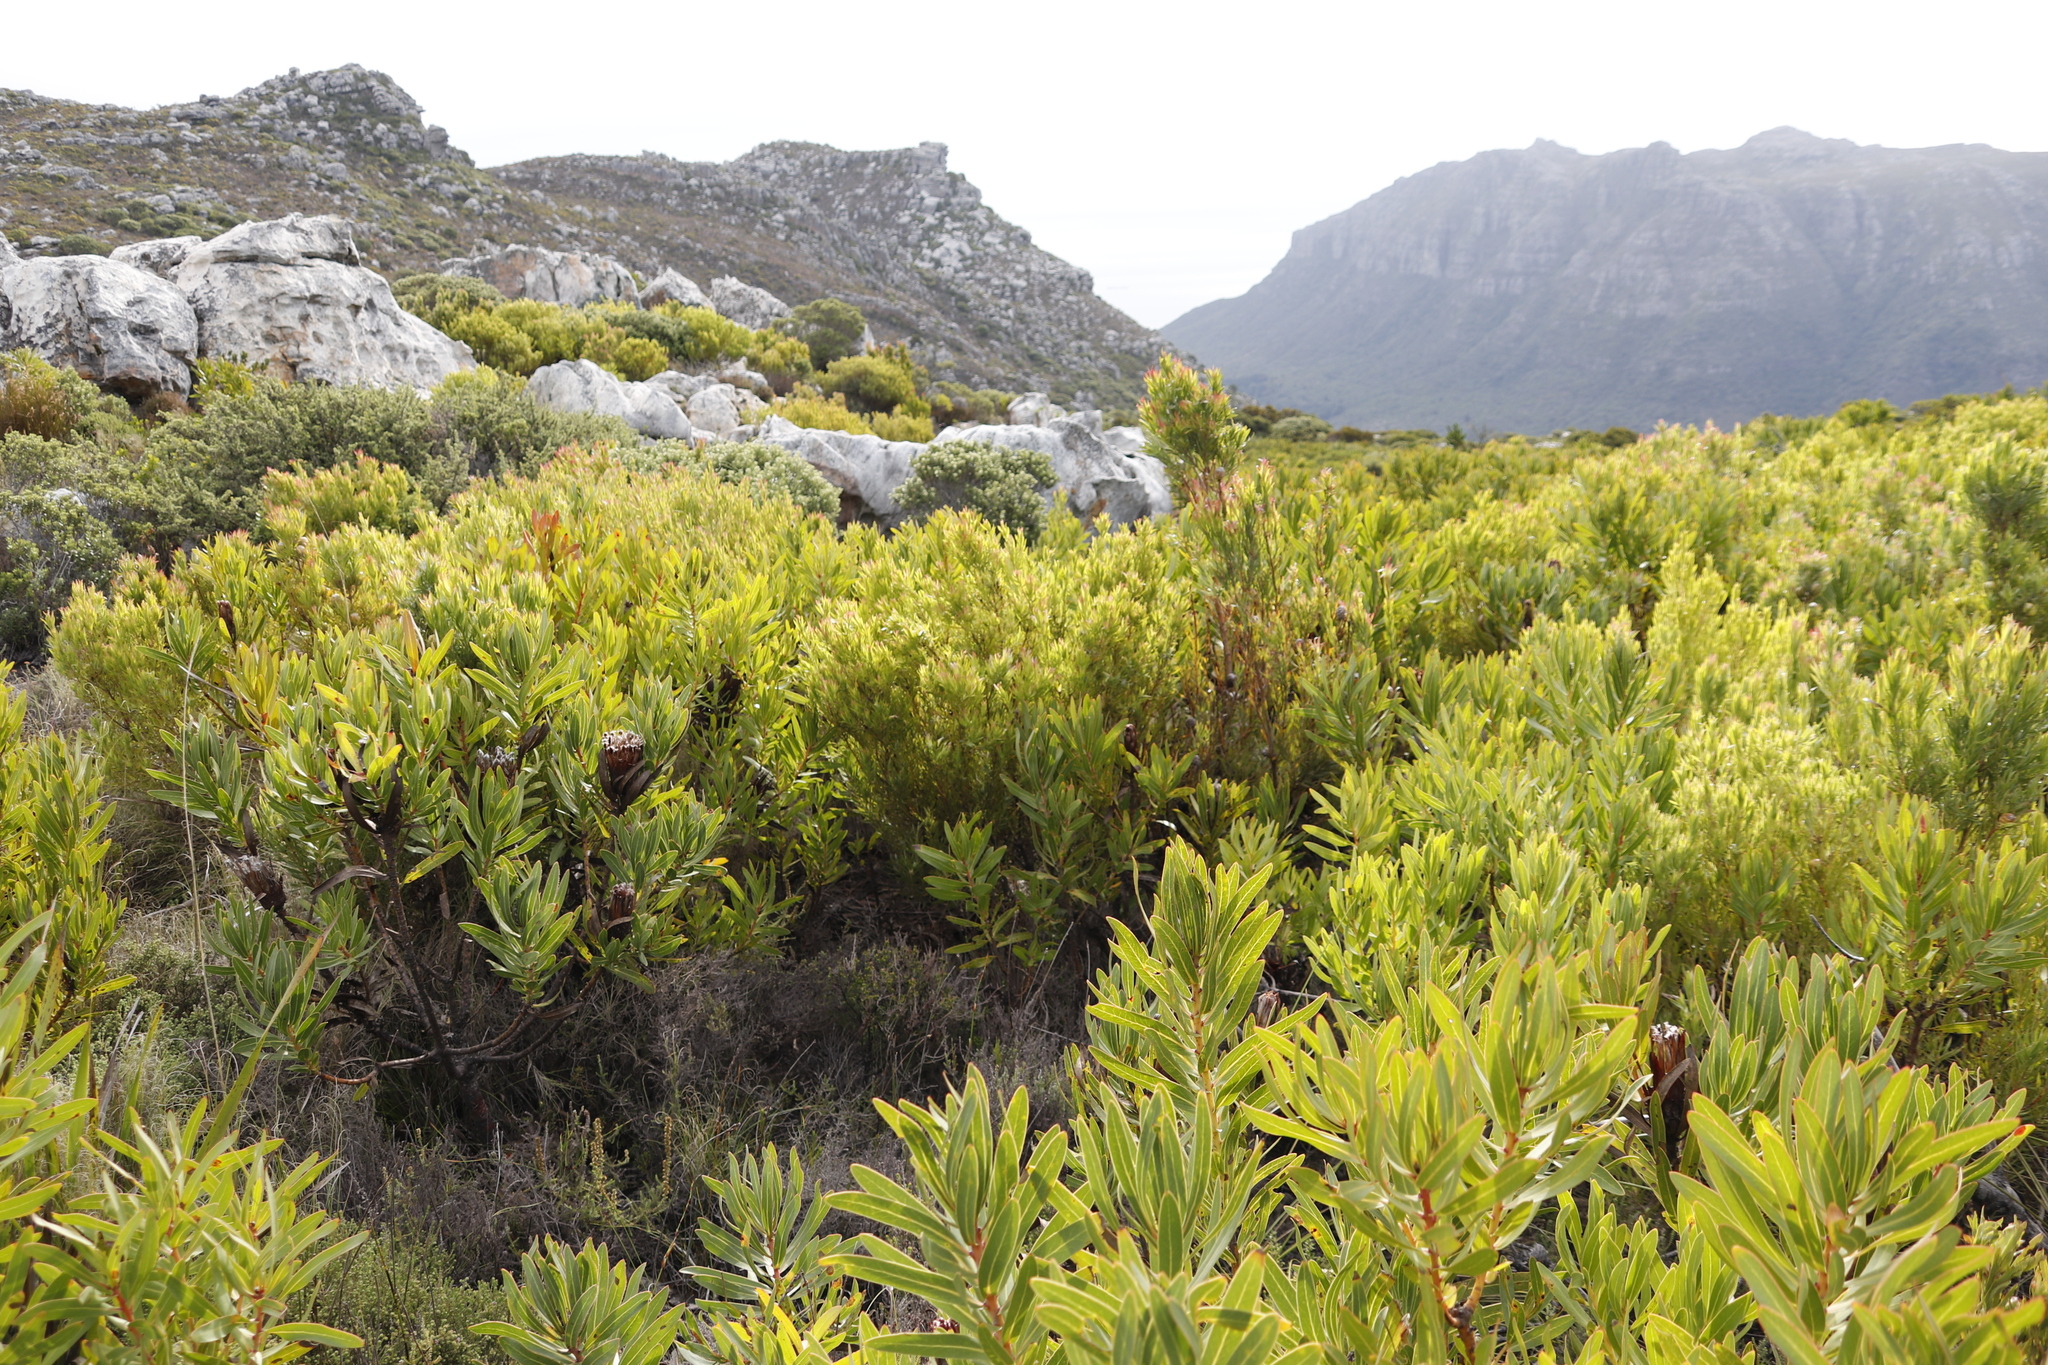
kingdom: Plantae
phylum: Tracheophyta
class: Magnoliopsida
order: Proteales
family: Proteaceae
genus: Leucadendron
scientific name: Leucadendron xanthoconus
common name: Sickle-leaf conebush
